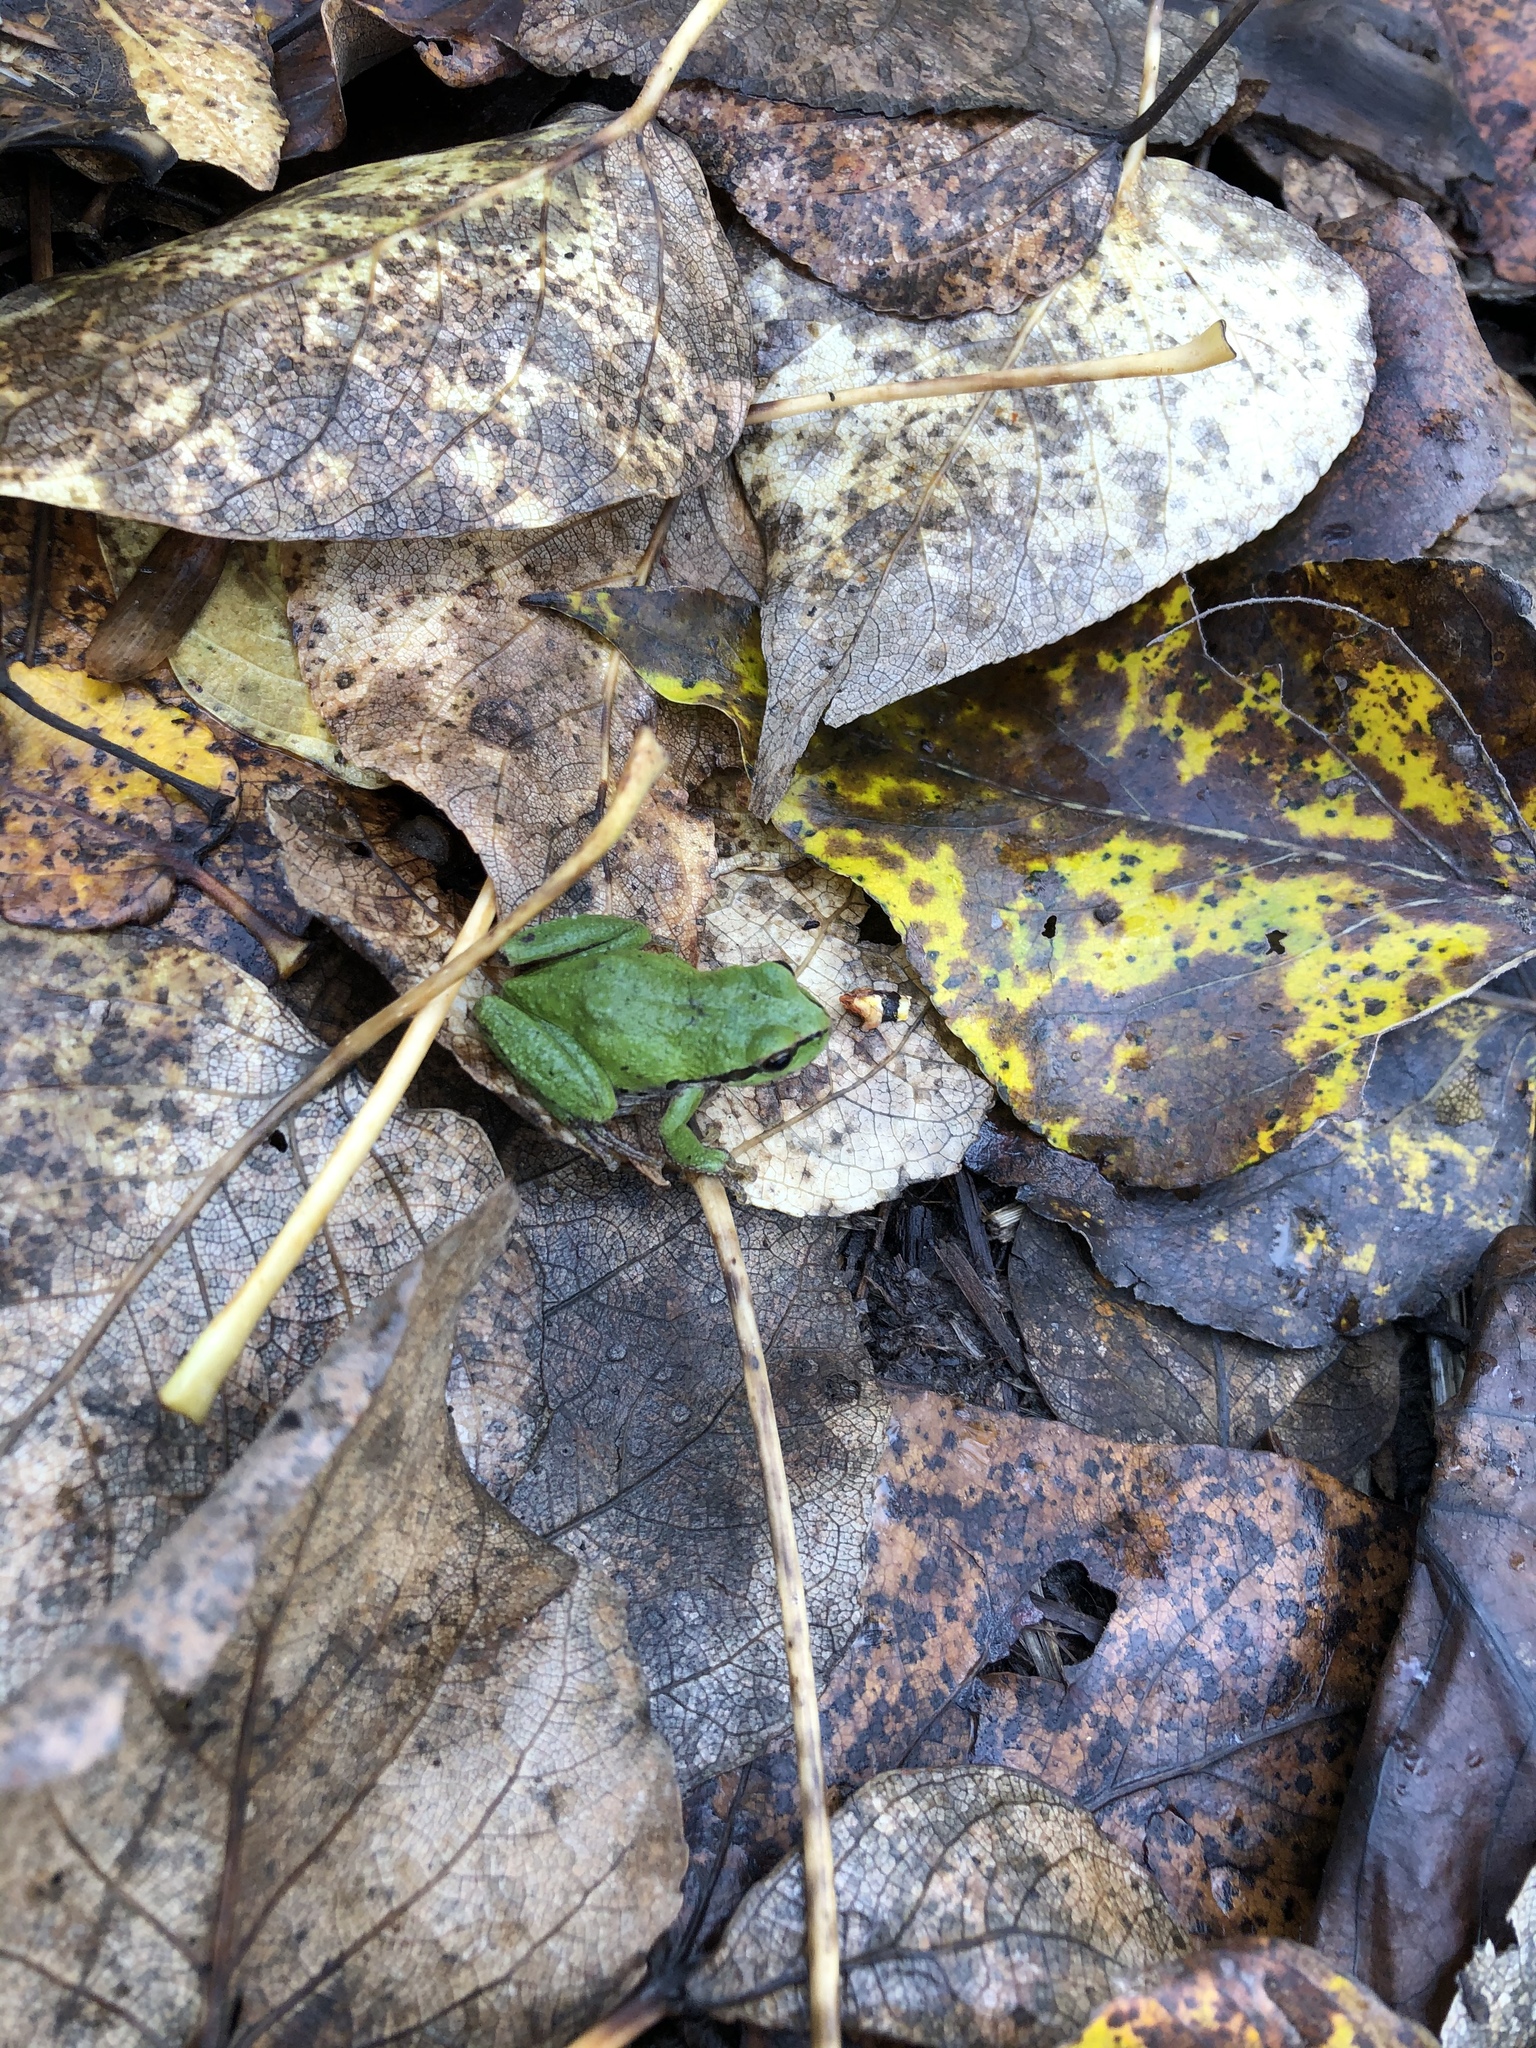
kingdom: Animalia
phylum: Chordata
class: Amphibia
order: Anura
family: Hylidae
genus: Pseudacris
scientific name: Pseudacris regilla
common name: Pacific chorus frog
